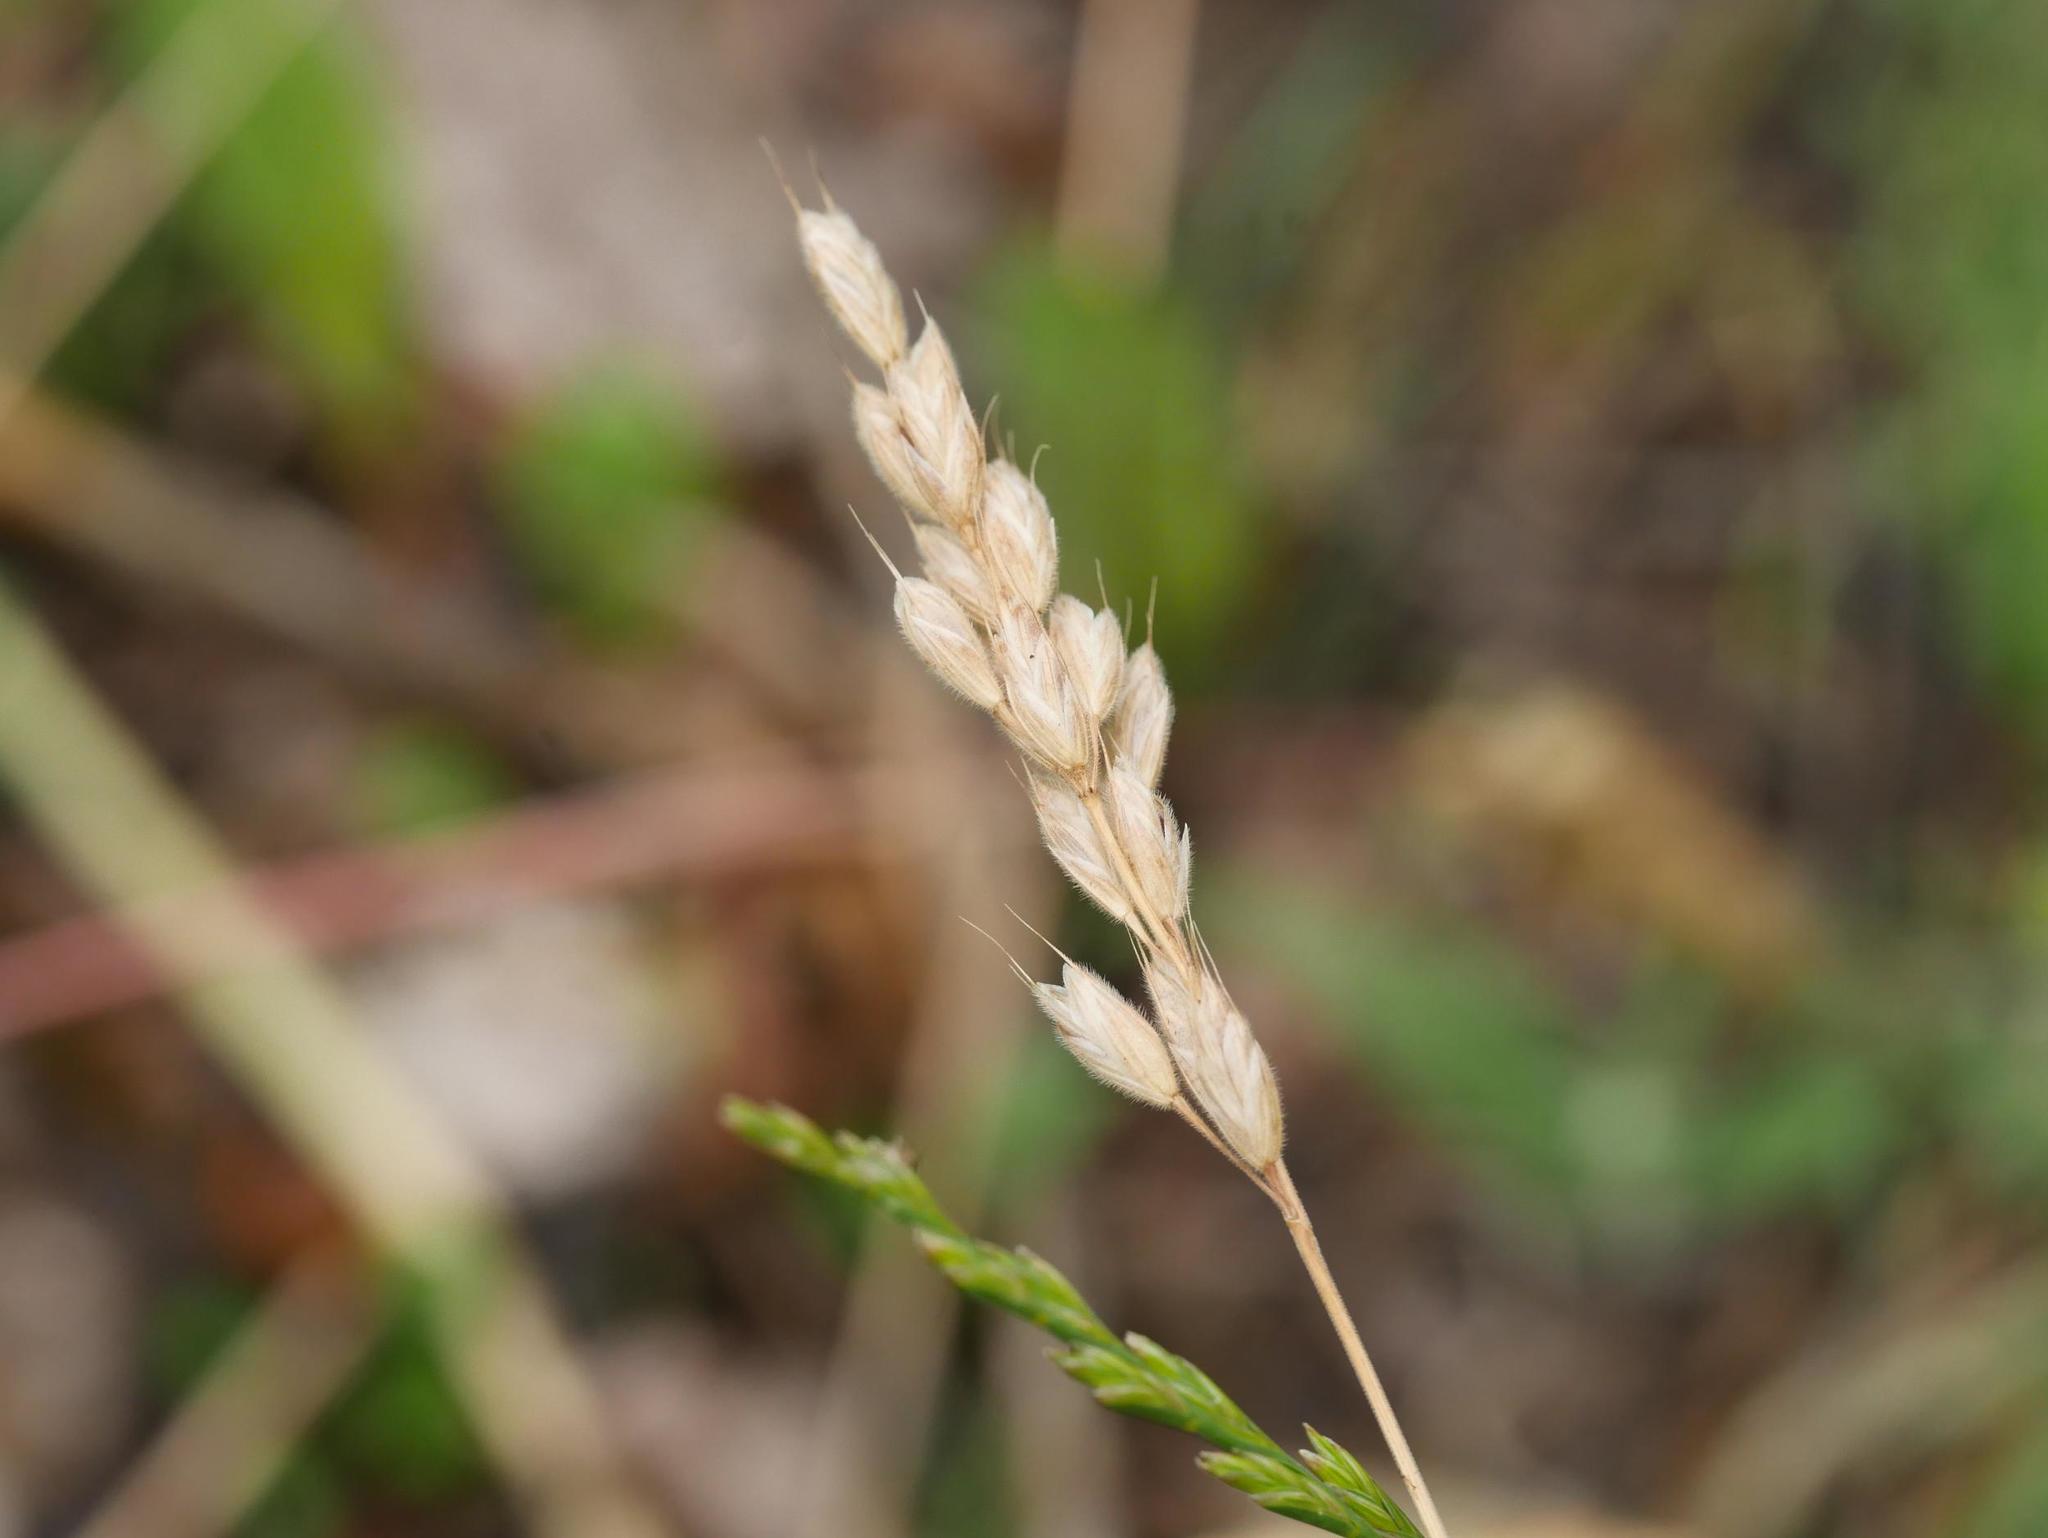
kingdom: Plantae
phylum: Tracheophyta
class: Liliopsida
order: Poales
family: Poaceae
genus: Bromus
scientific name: Bromus hordeaceus
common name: Soft brome
